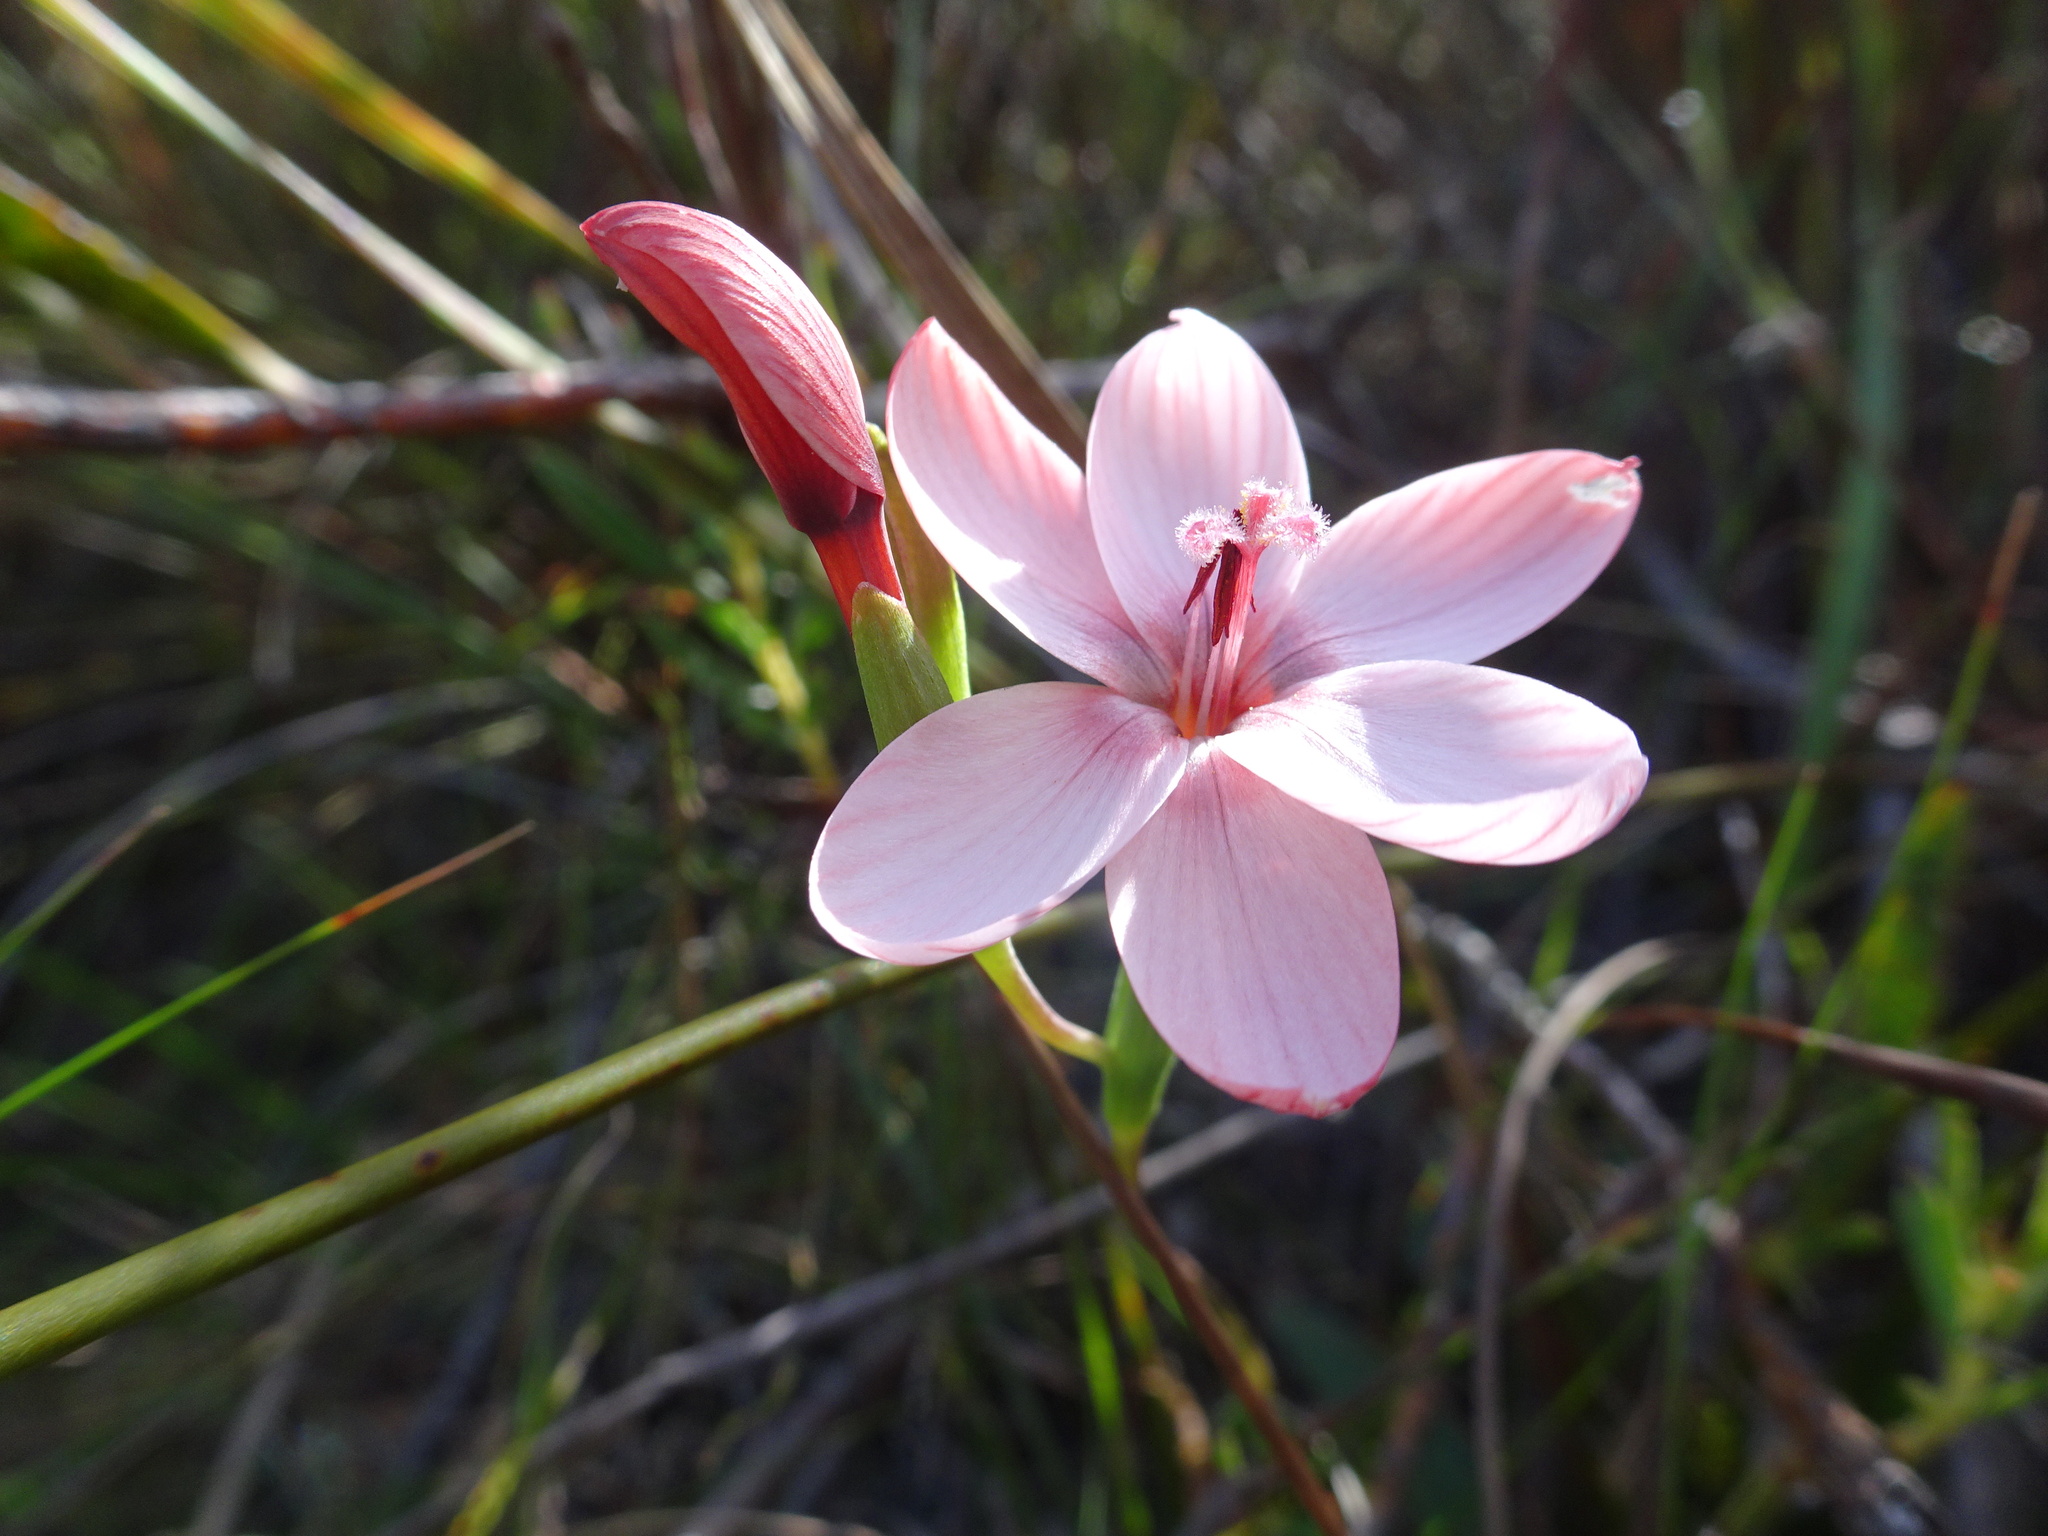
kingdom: Plantae
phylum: Tracheophyta
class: Liliopsida
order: Asparagales
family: Iridaceae
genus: Geissorhiza
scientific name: Geissorhiza ovata
